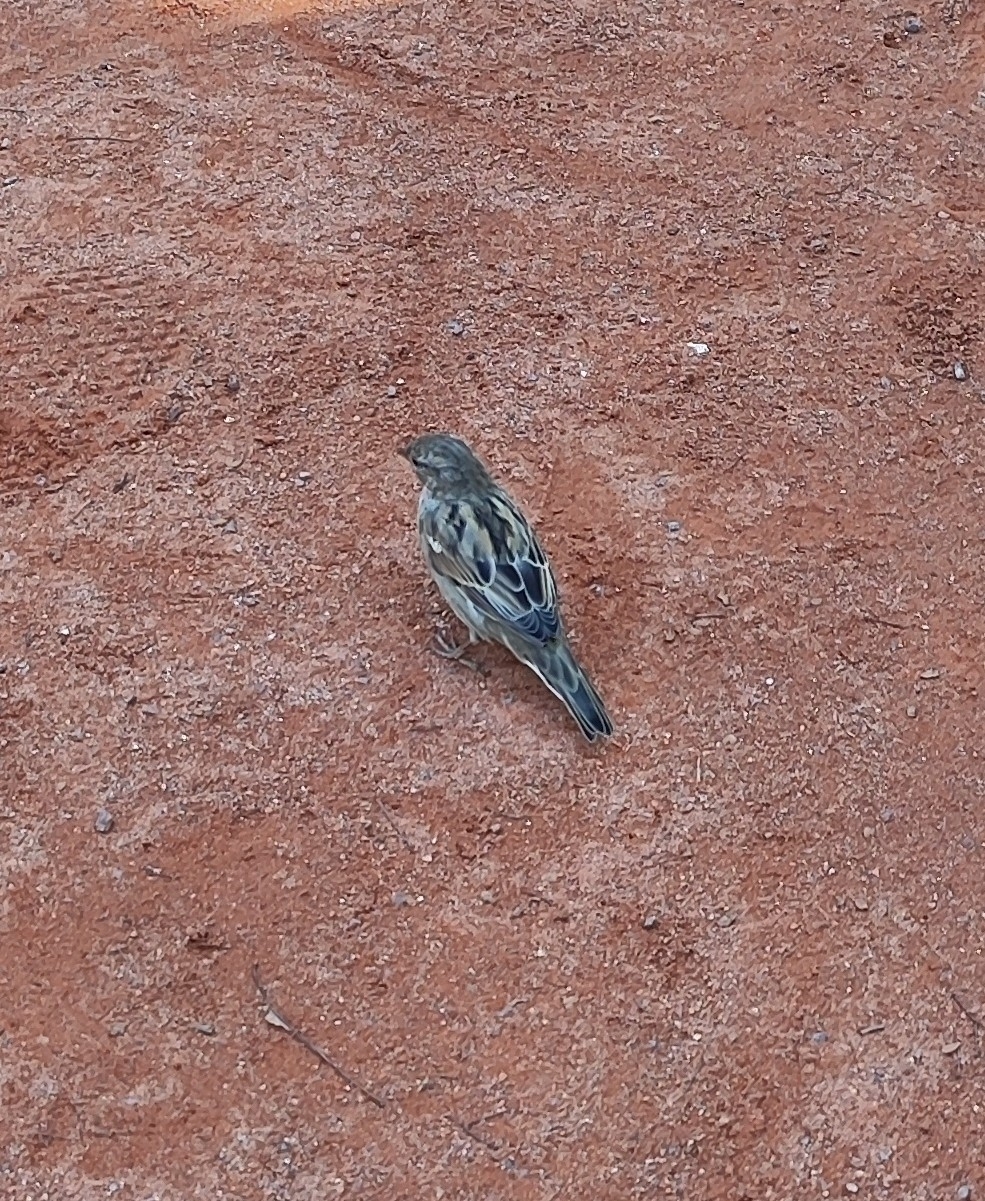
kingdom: Animalia
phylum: Chordata
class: Aves
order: Passeriformes
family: Passeridae
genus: Passer
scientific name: Passer domesticus
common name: House sparrow
